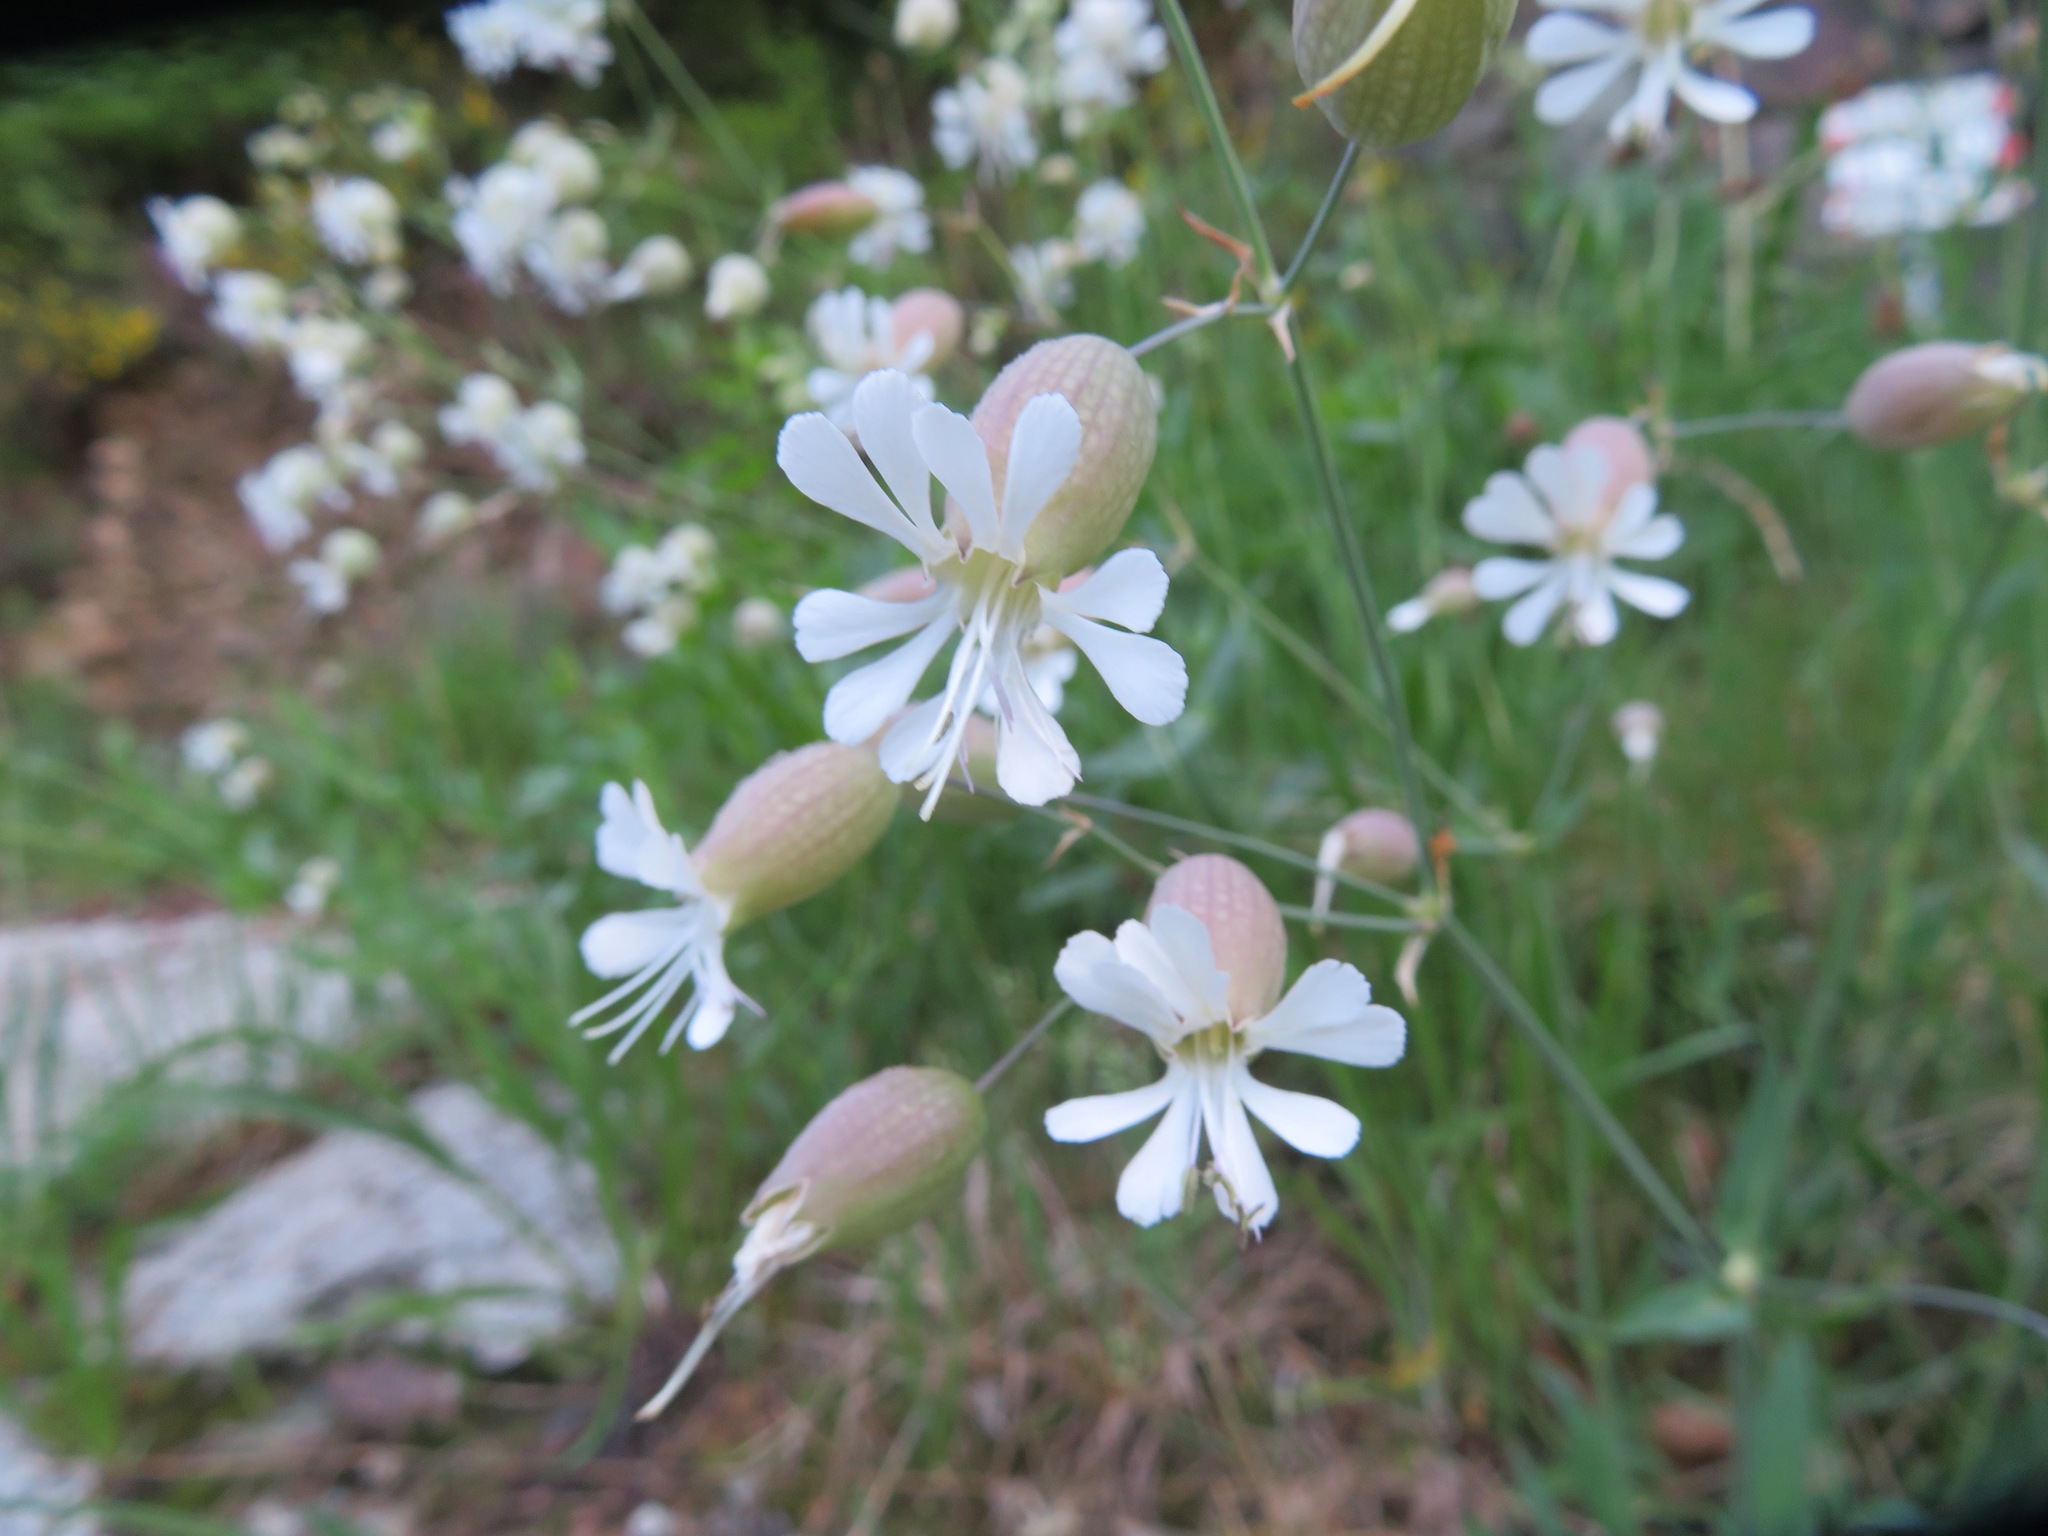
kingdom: Plantae
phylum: Tracheophyta
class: Magnoliopsida
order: Caryophyllales
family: Caryophyllaceae
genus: Silene
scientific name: Silene vulgaris
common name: Bladder campion
